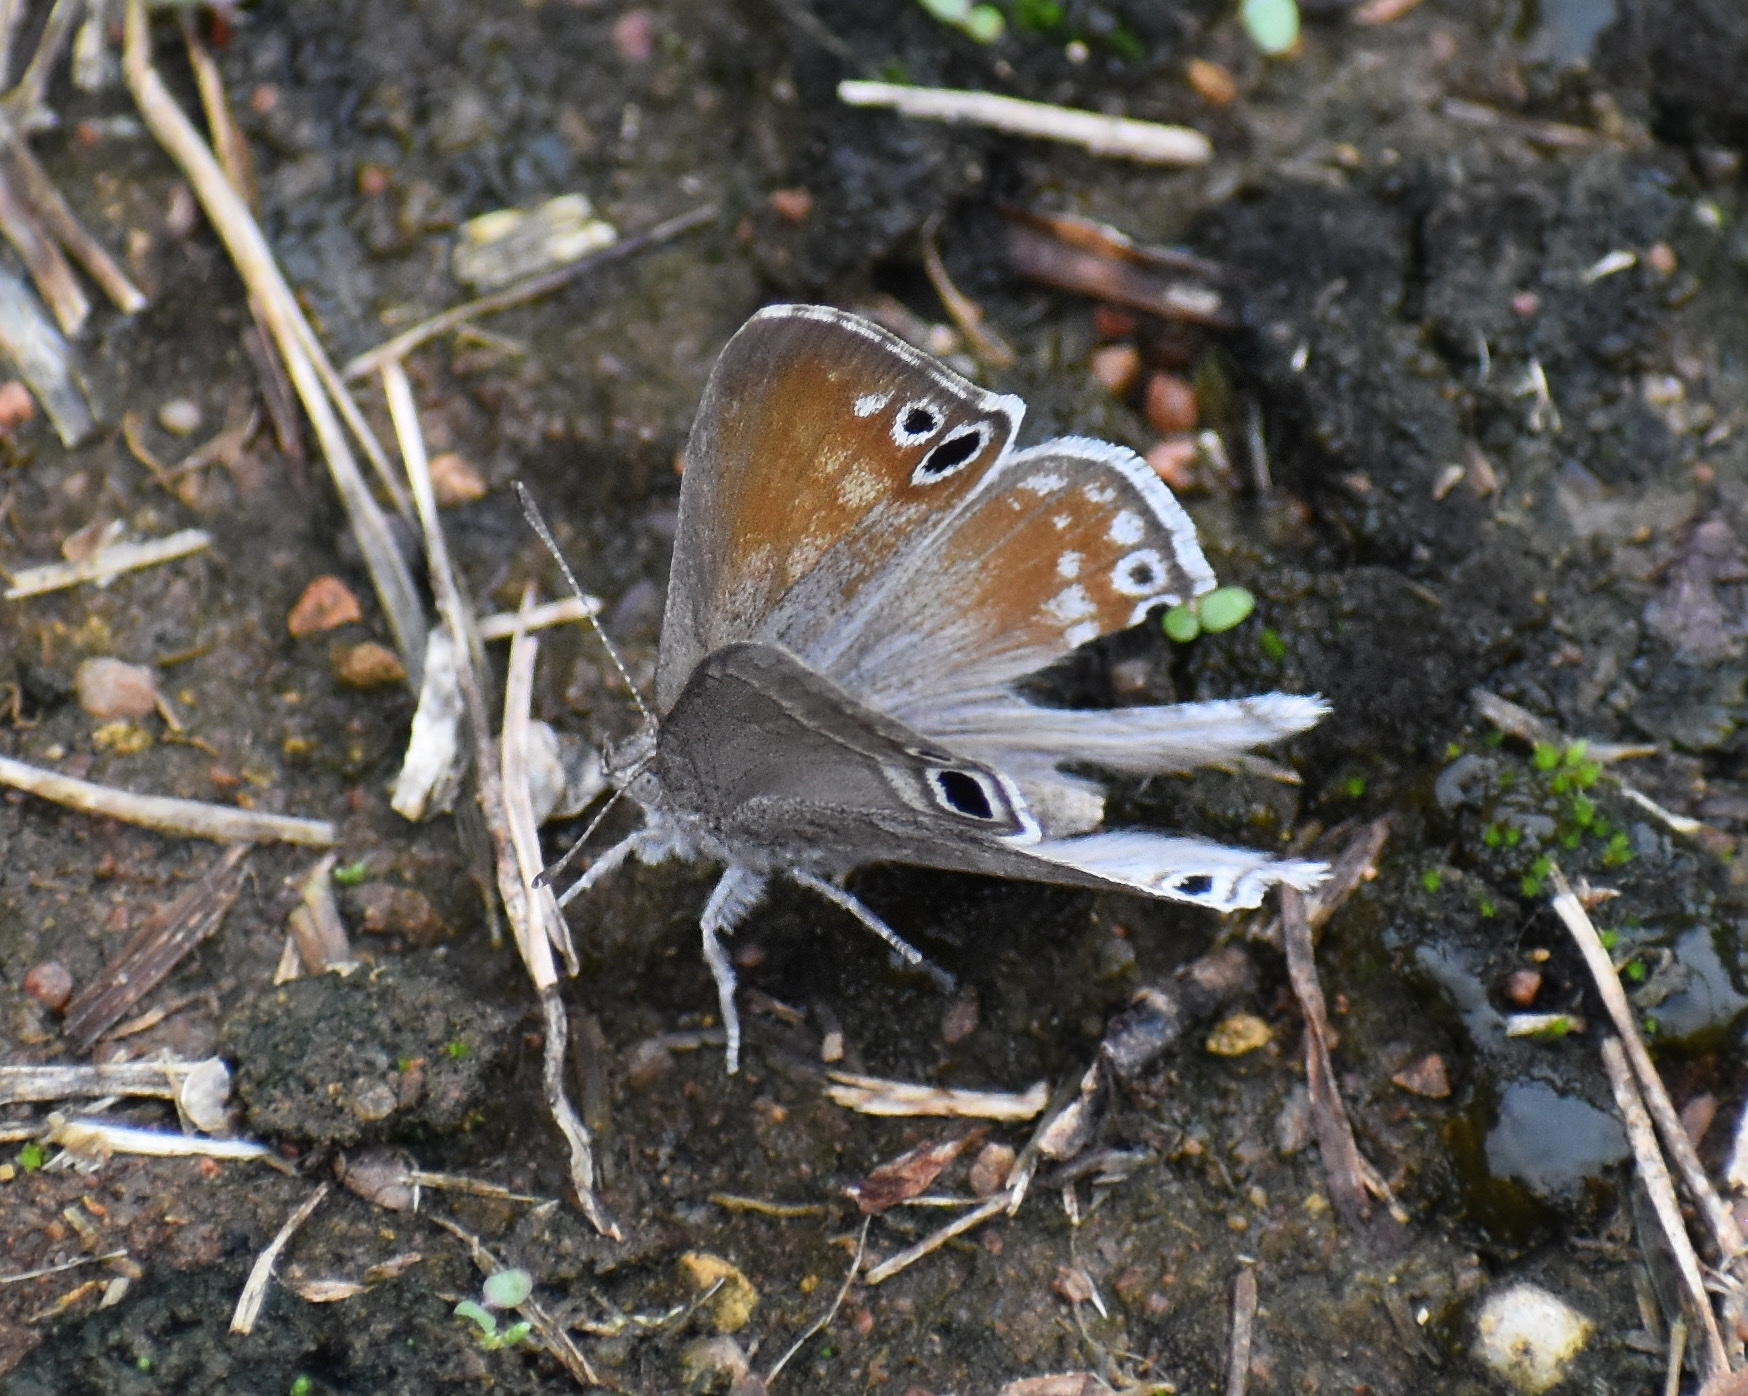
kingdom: Animalia
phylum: Arthropoda
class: Insecta
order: Lepidoptera
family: Lycaenidae
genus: Leptomyrina
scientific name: Leptomyrina gorgias
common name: Common black-eye
